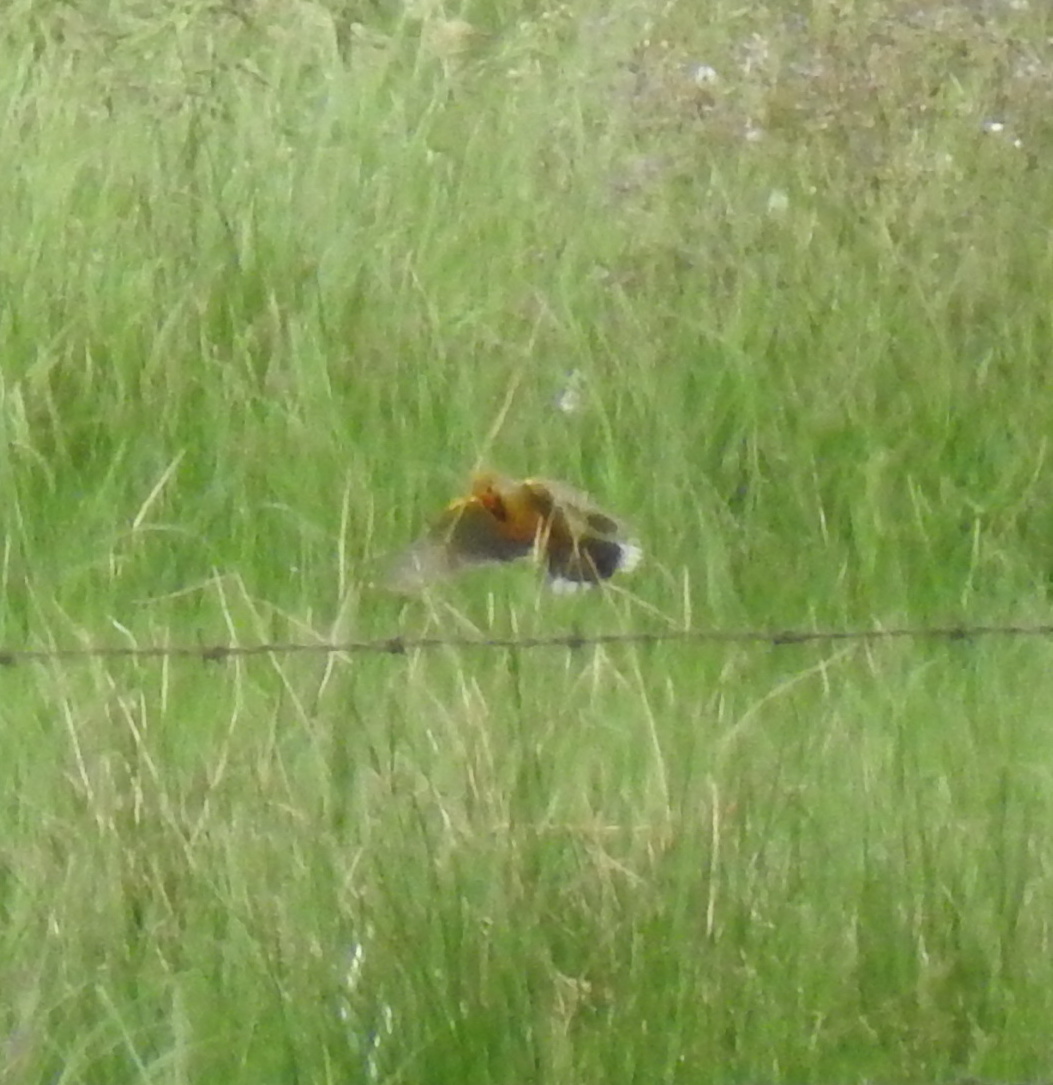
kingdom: Animalia
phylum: Chordata
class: Aves
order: Passeriformes
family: Motacillidae
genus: Macronyx
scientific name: Macronyx capensis
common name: Cape longclaw
